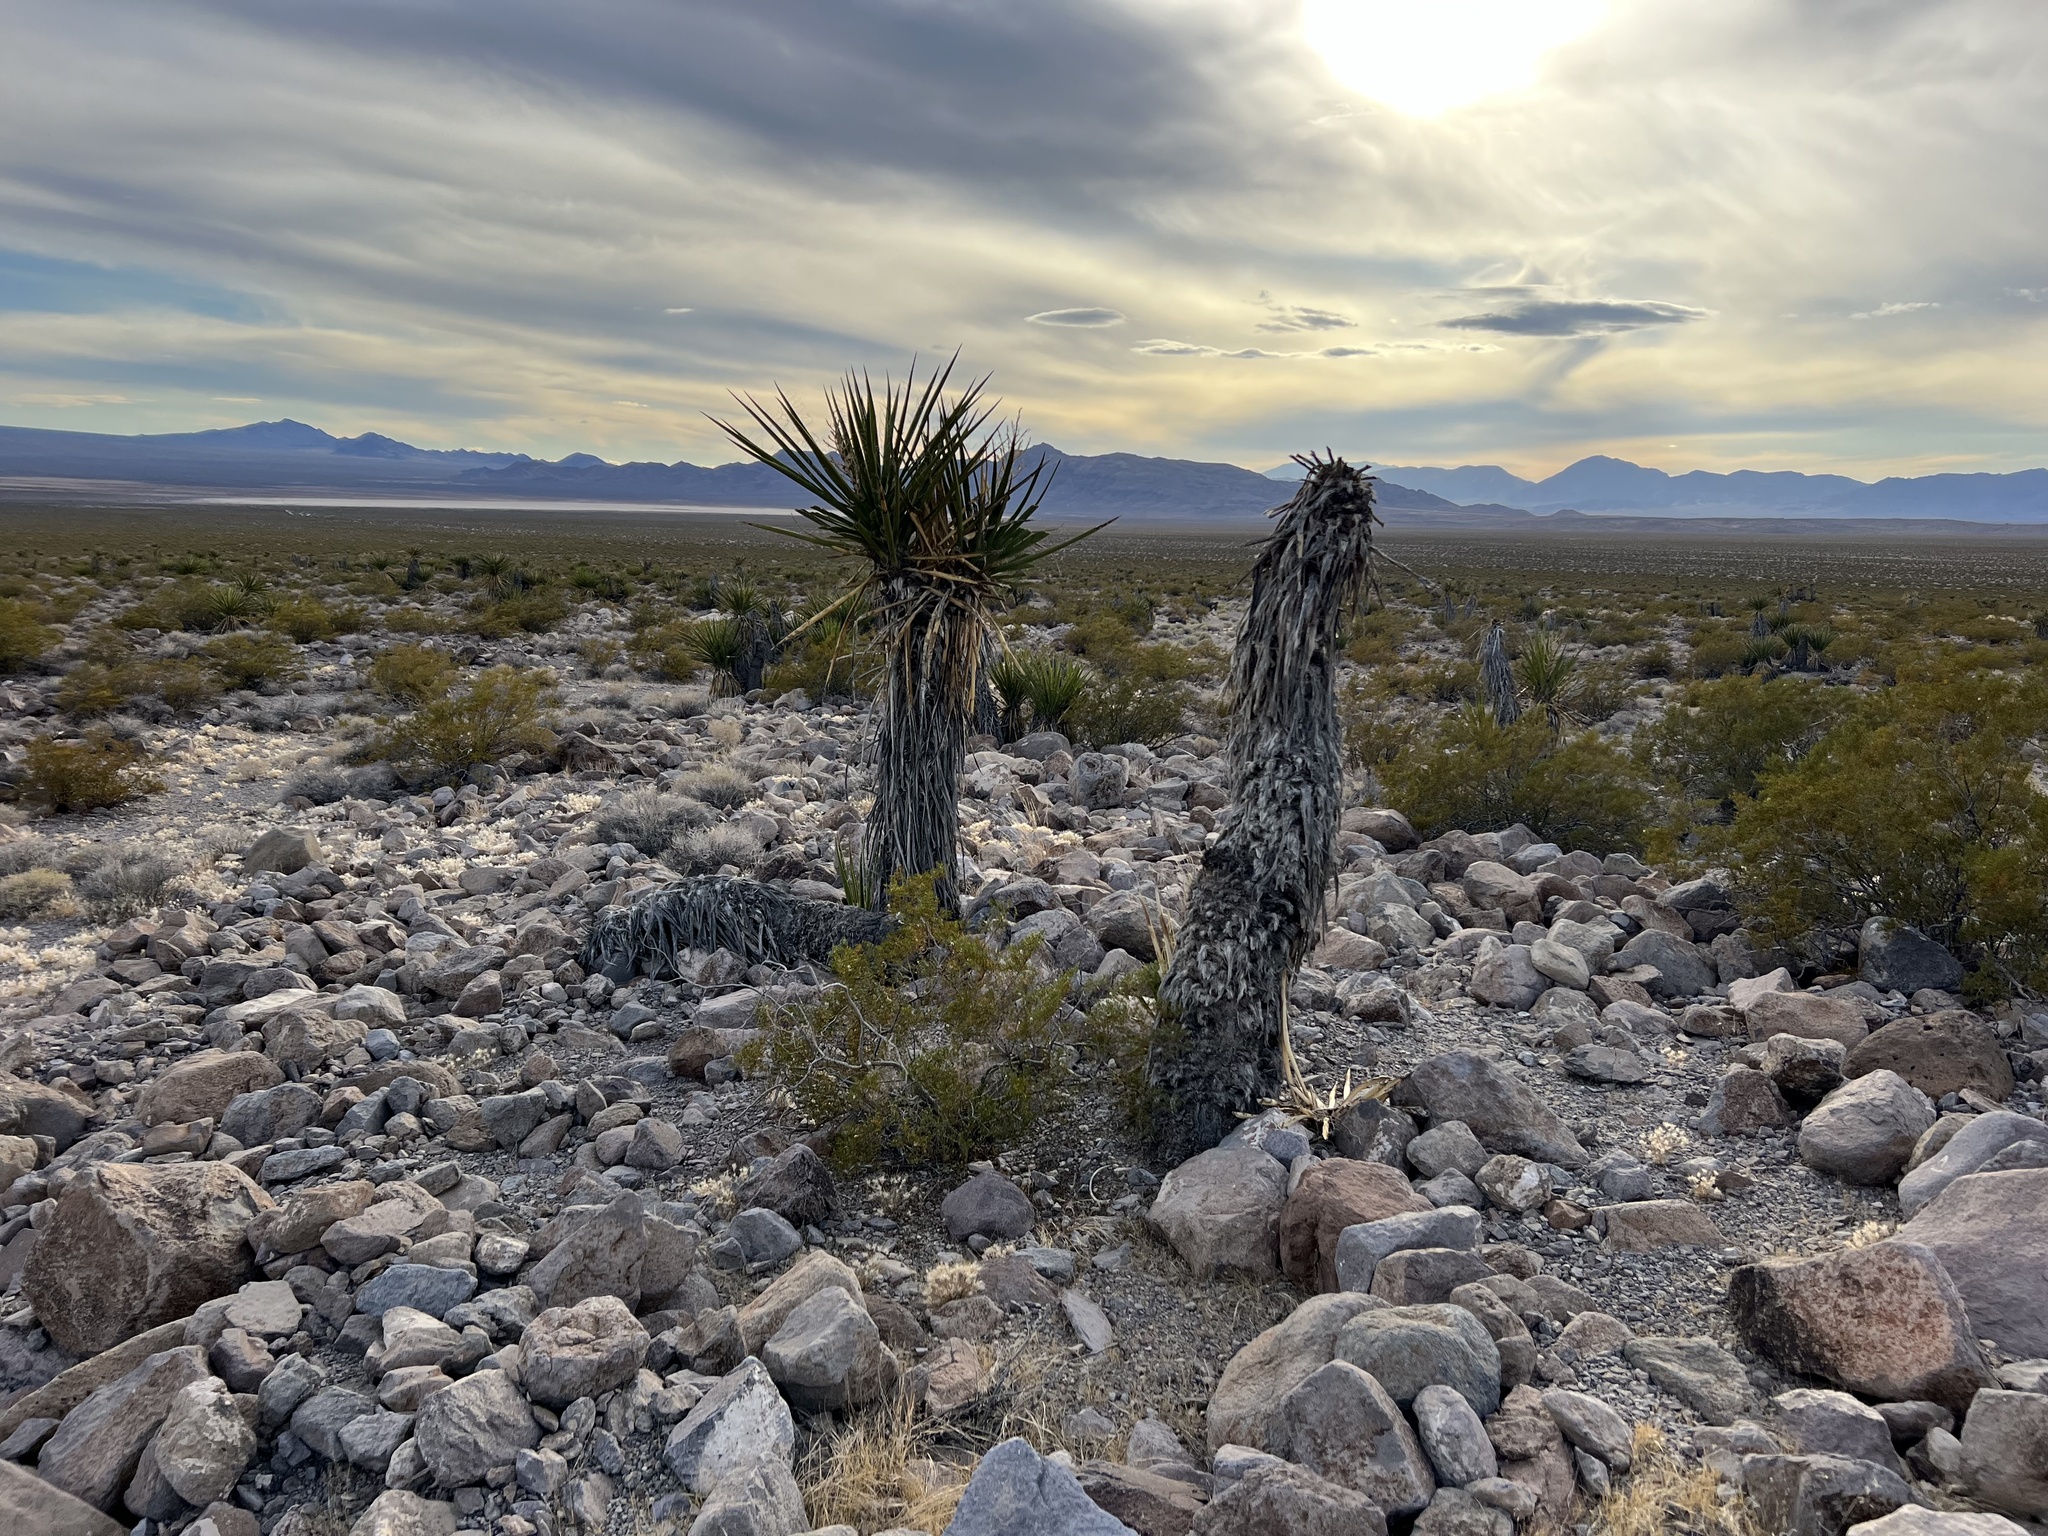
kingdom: Plantae
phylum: Tracheophyta
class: Liliopsida
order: Asparagales
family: Asparagaceae
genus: Yucca
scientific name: Yucca schidigera
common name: Mojave yucca
